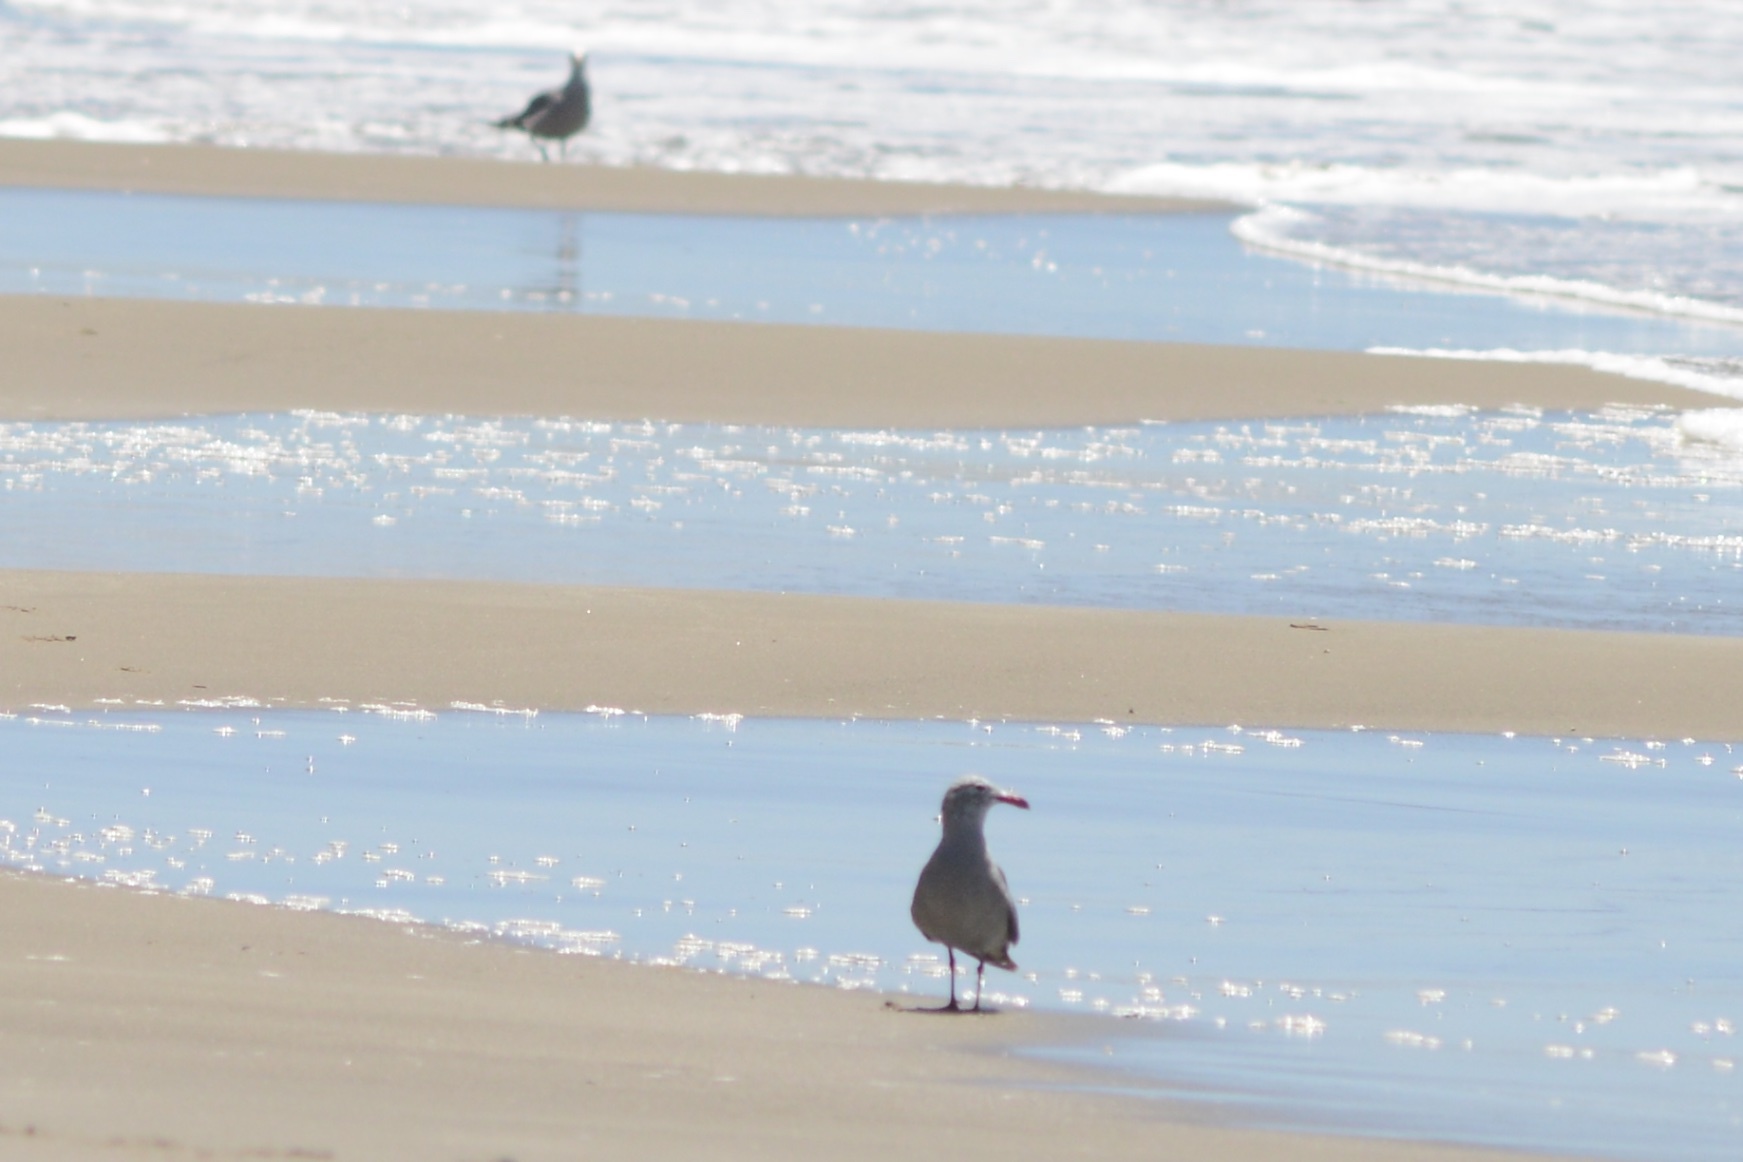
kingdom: Animalia
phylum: Chordata
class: Aves
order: Charadriiformes
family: Laridae
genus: Larus
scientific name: Larus heermanni
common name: Heermann's gull
